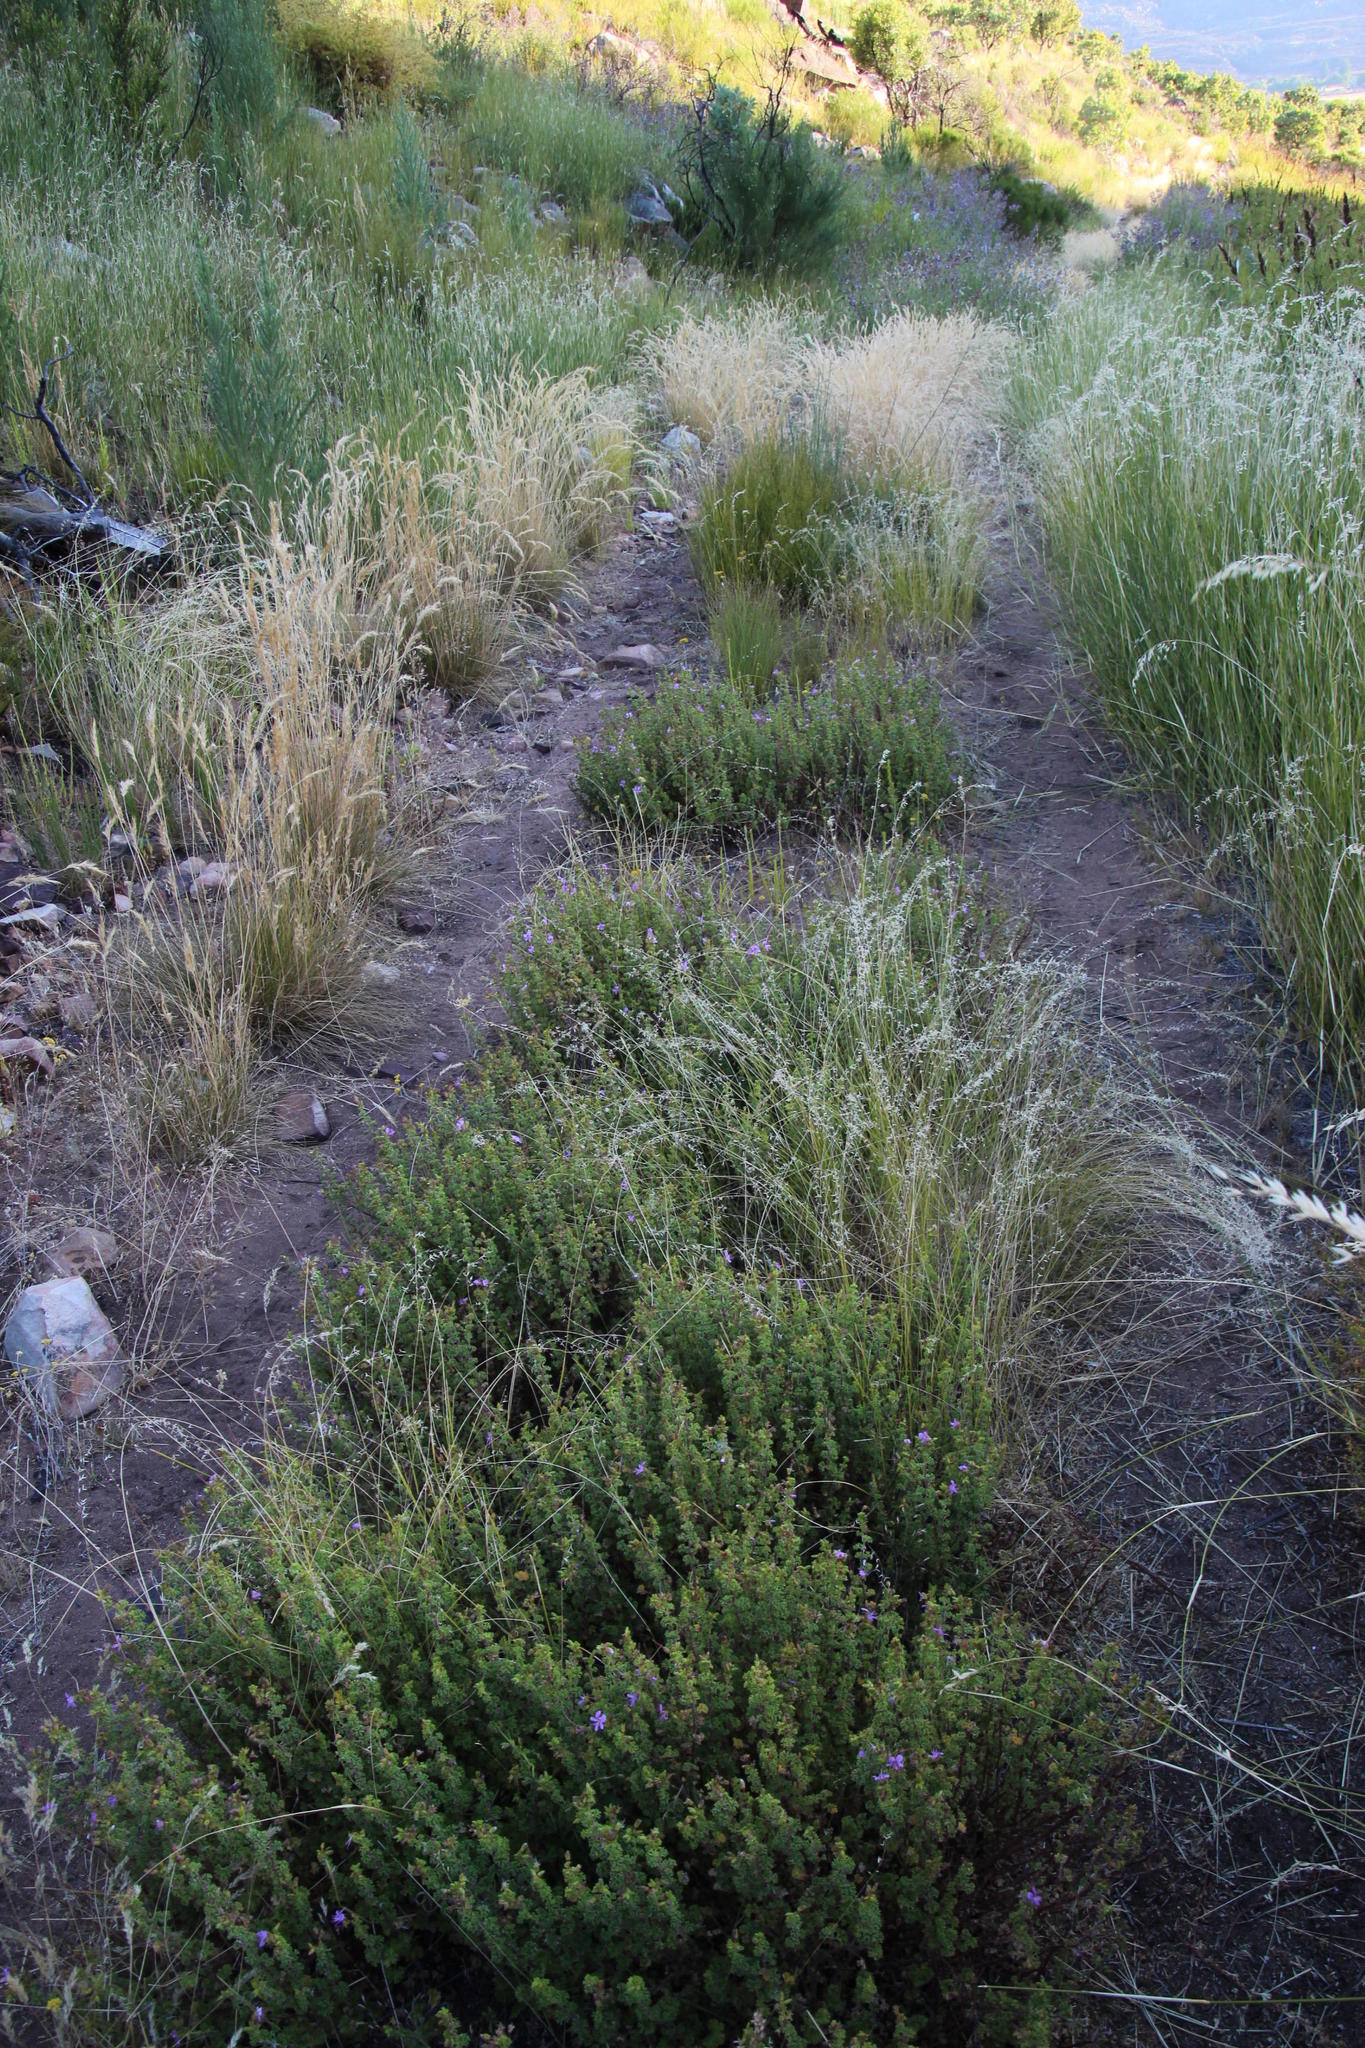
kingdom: Plantae
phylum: Tracheophyta
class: Magnoliopsida
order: Geraniales
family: Geraniaceae
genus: Pelargonium
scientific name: Pelargonium englerianum
